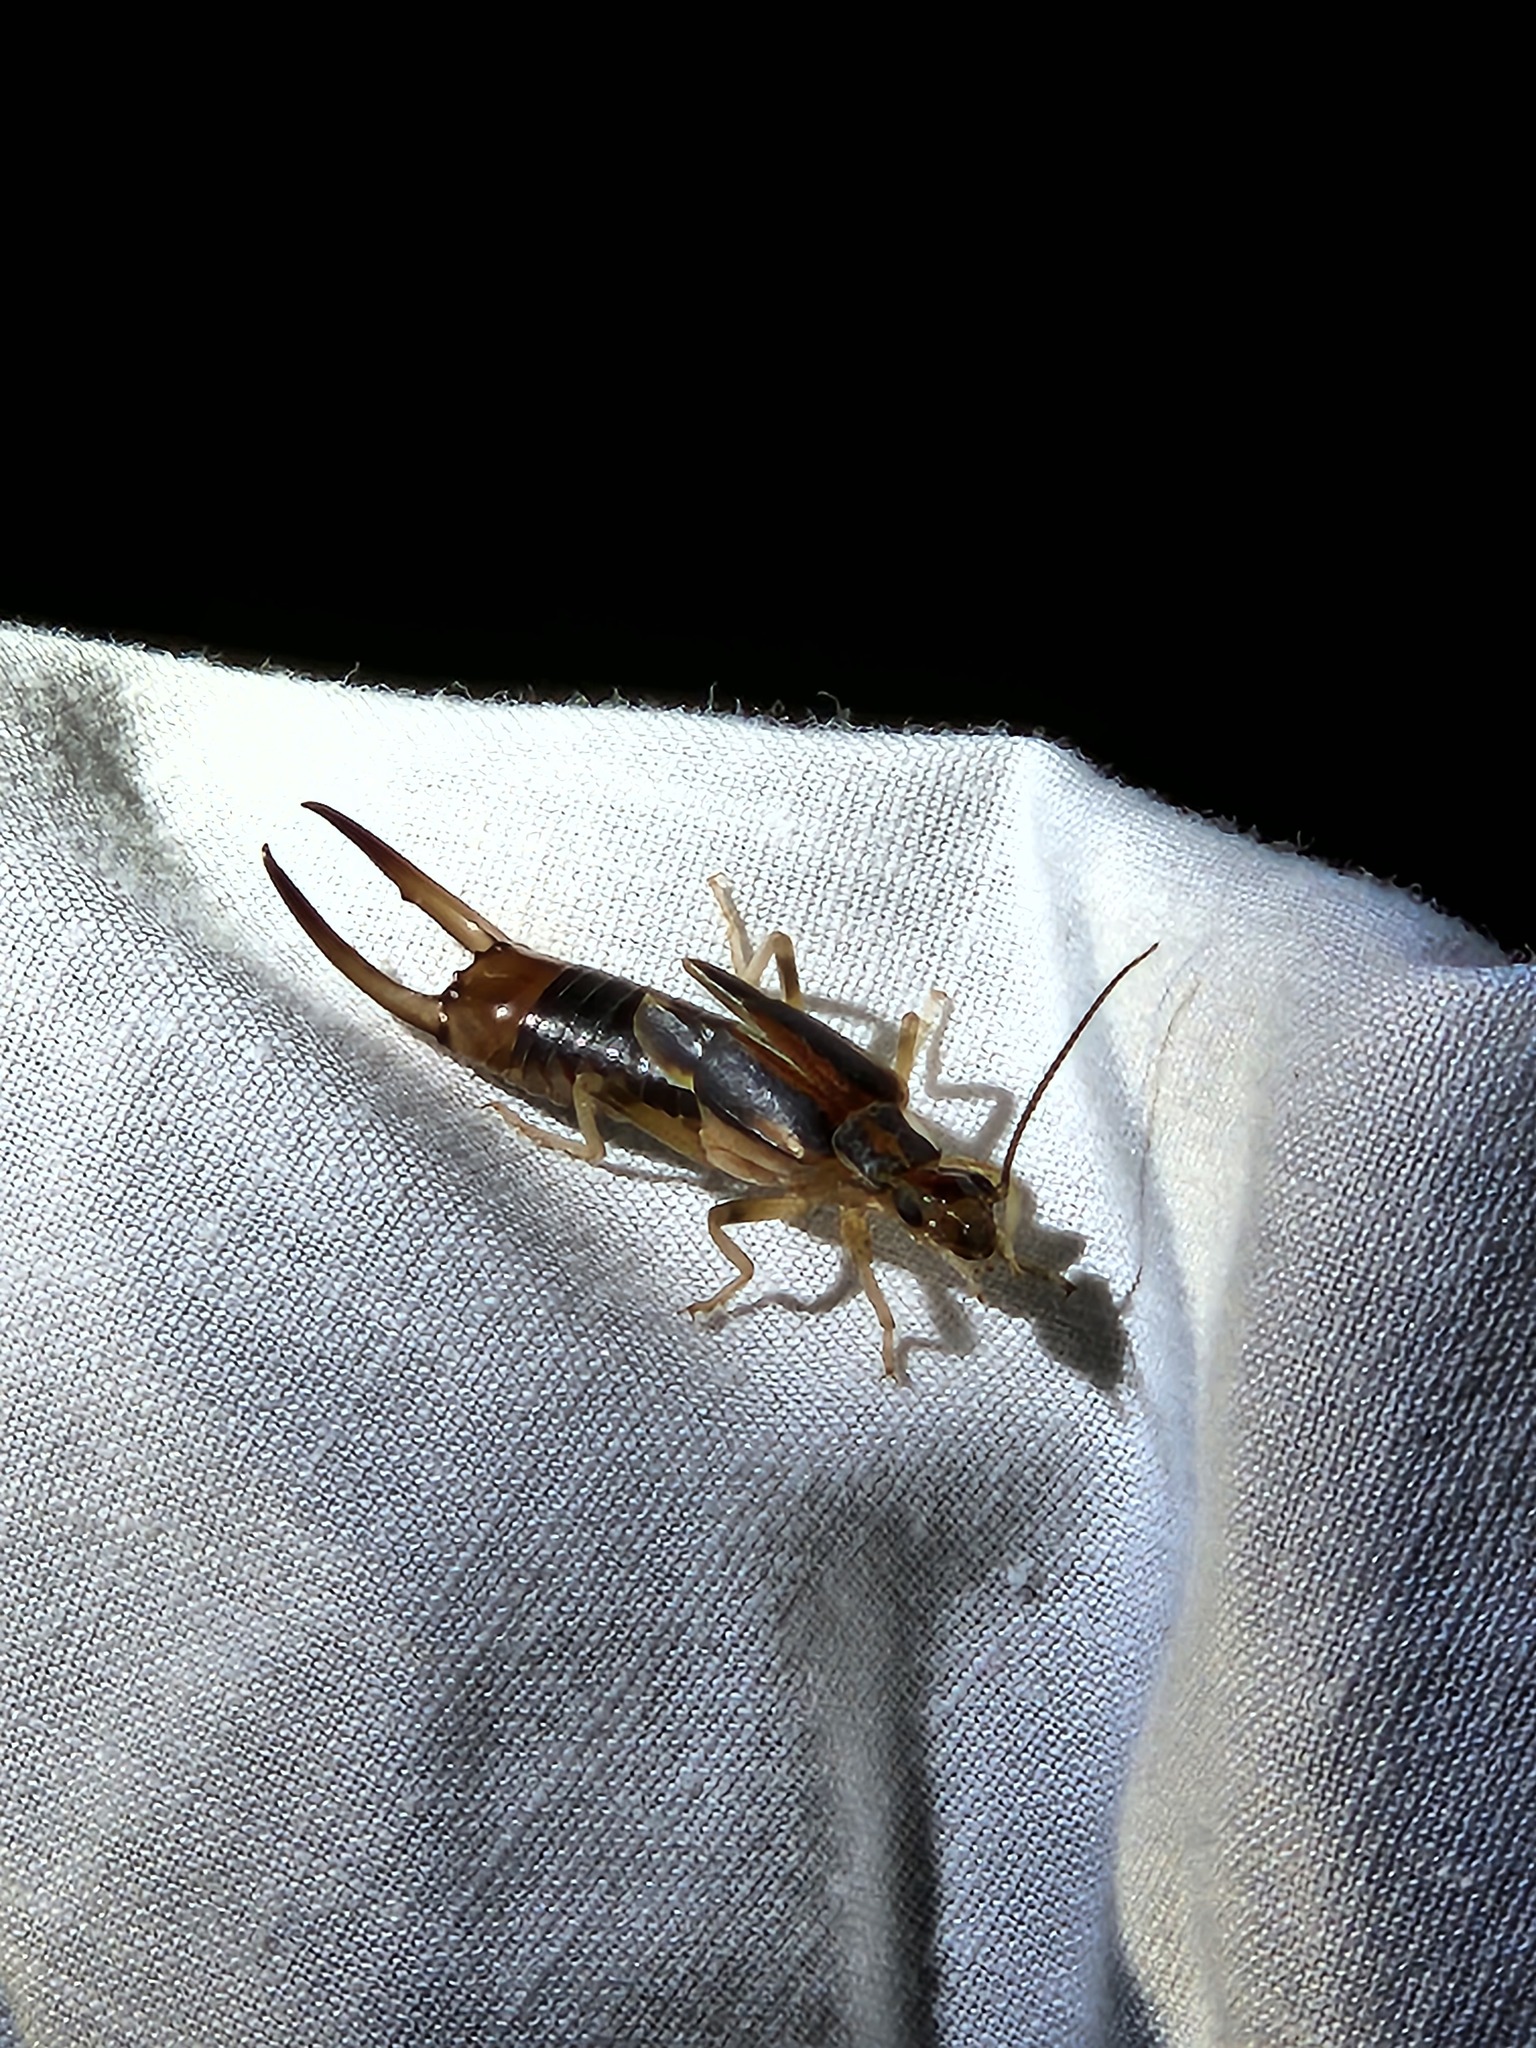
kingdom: Animalia
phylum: Arthropoda
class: Insecta
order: Dermaptera
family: Labiduridae
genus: Labidura
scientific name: Labidura riparia
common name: Striped earwig
